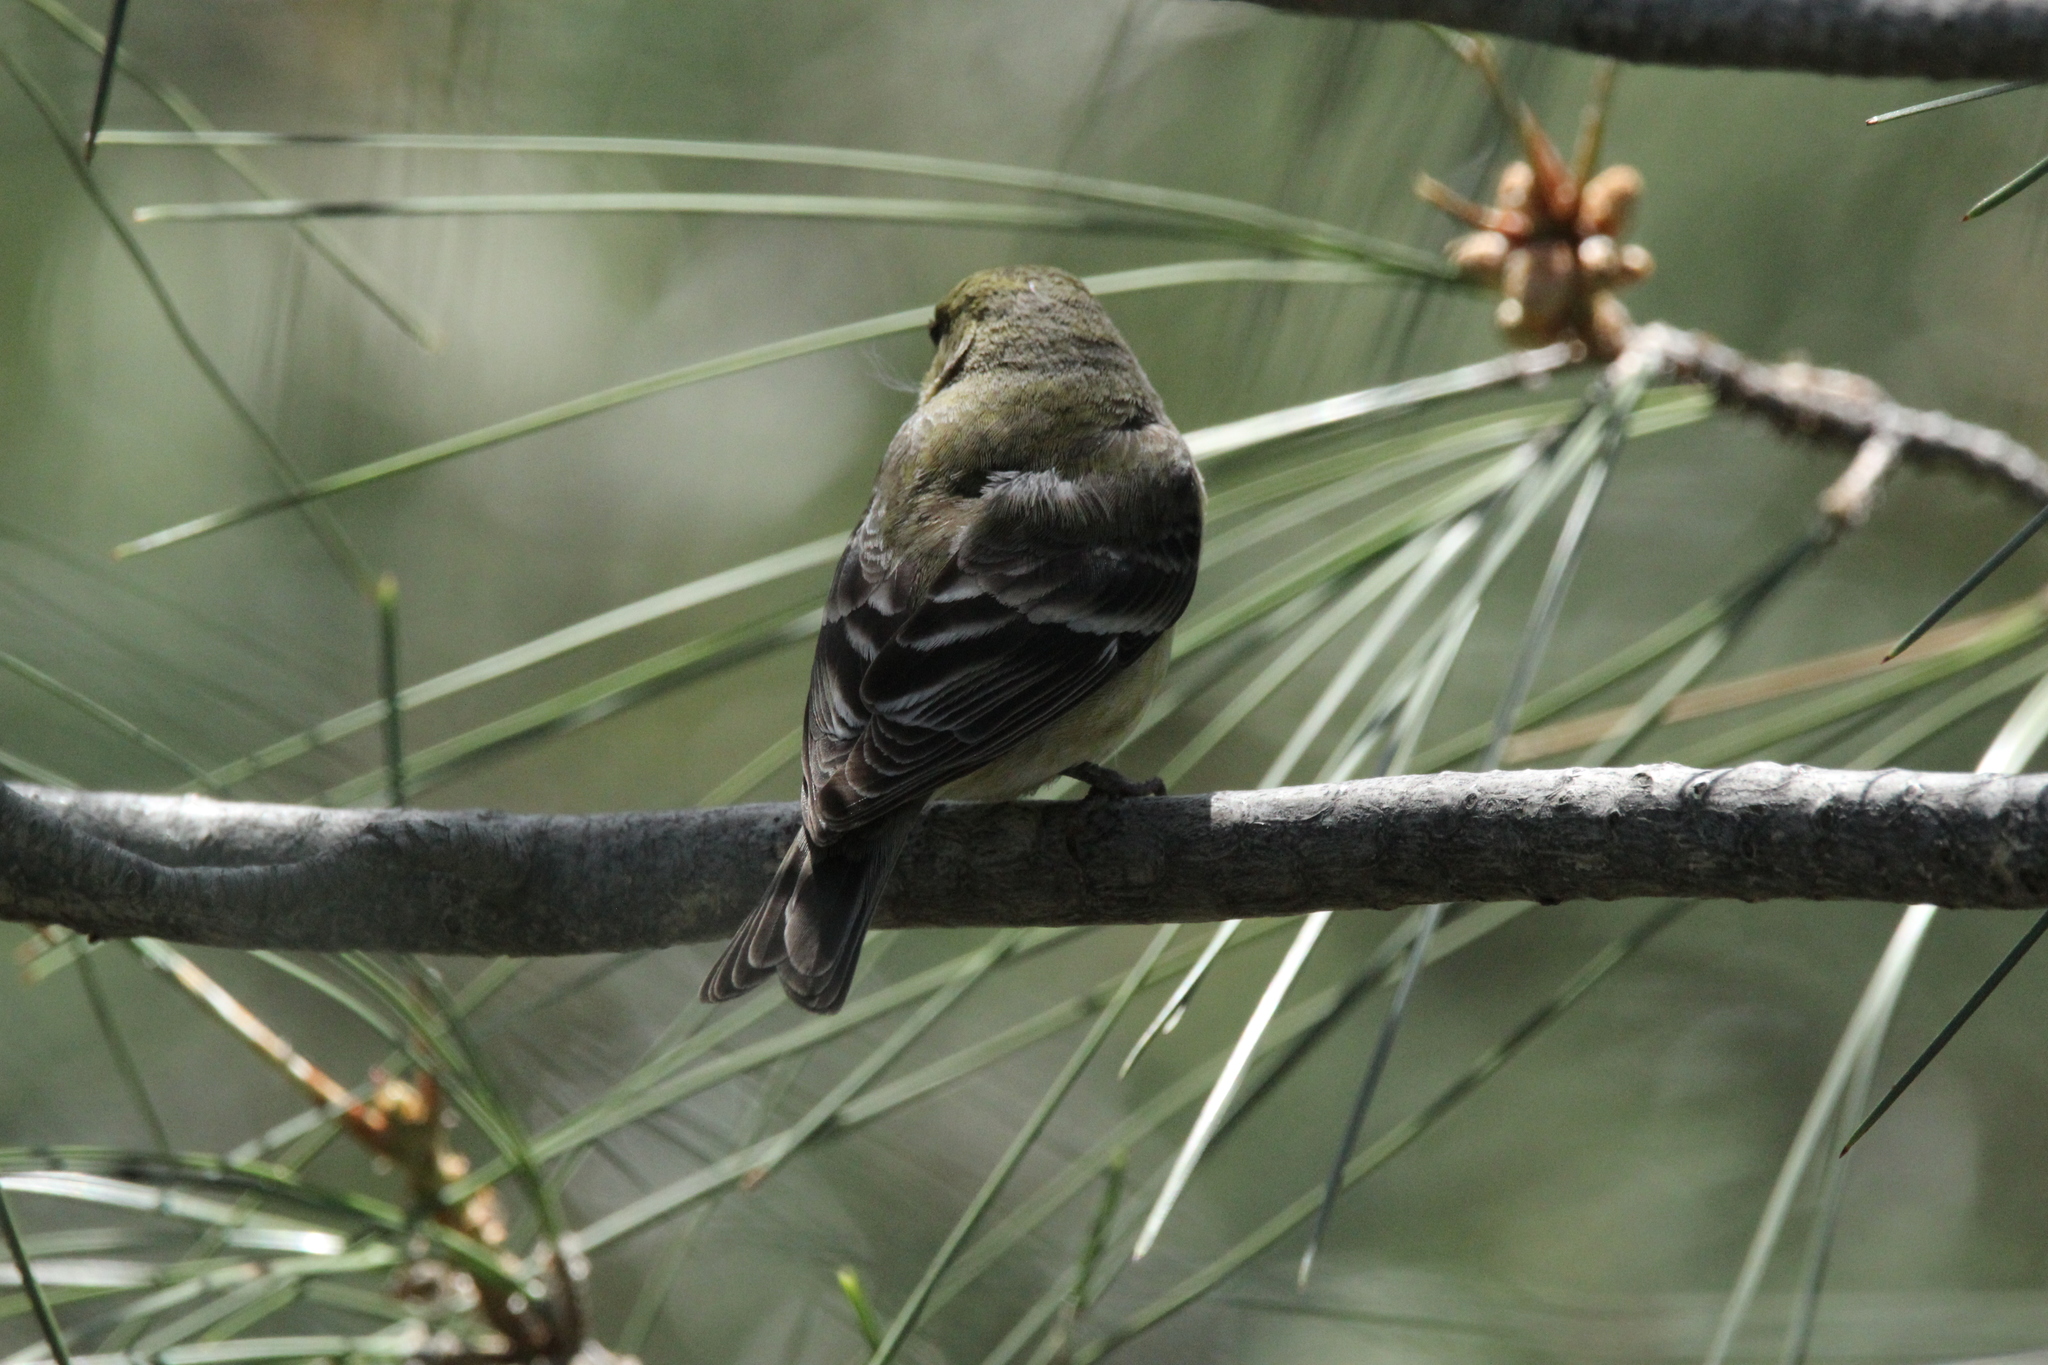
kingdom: Animalia
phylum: Chordata
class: Aves
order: Passeriformes
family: Fringillidae
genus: Spinus
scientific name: Spinus psaltria
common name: Lesser goldfinch
